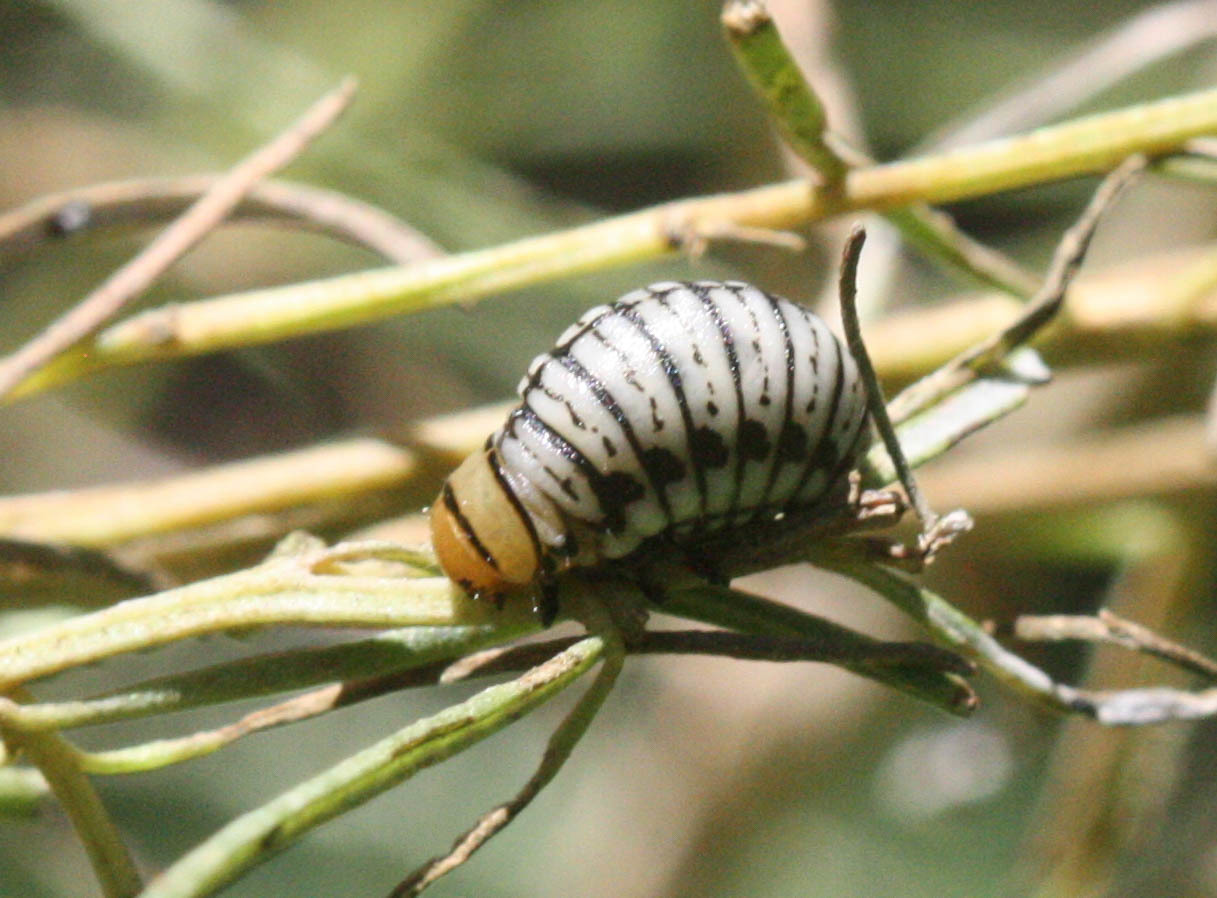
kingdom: Animalia
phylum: Arthropoda
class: Insecta
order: Coleoptera
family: Chrysomelidae
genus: Leptinotarsa
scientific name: Leptinotarsa lineolata
